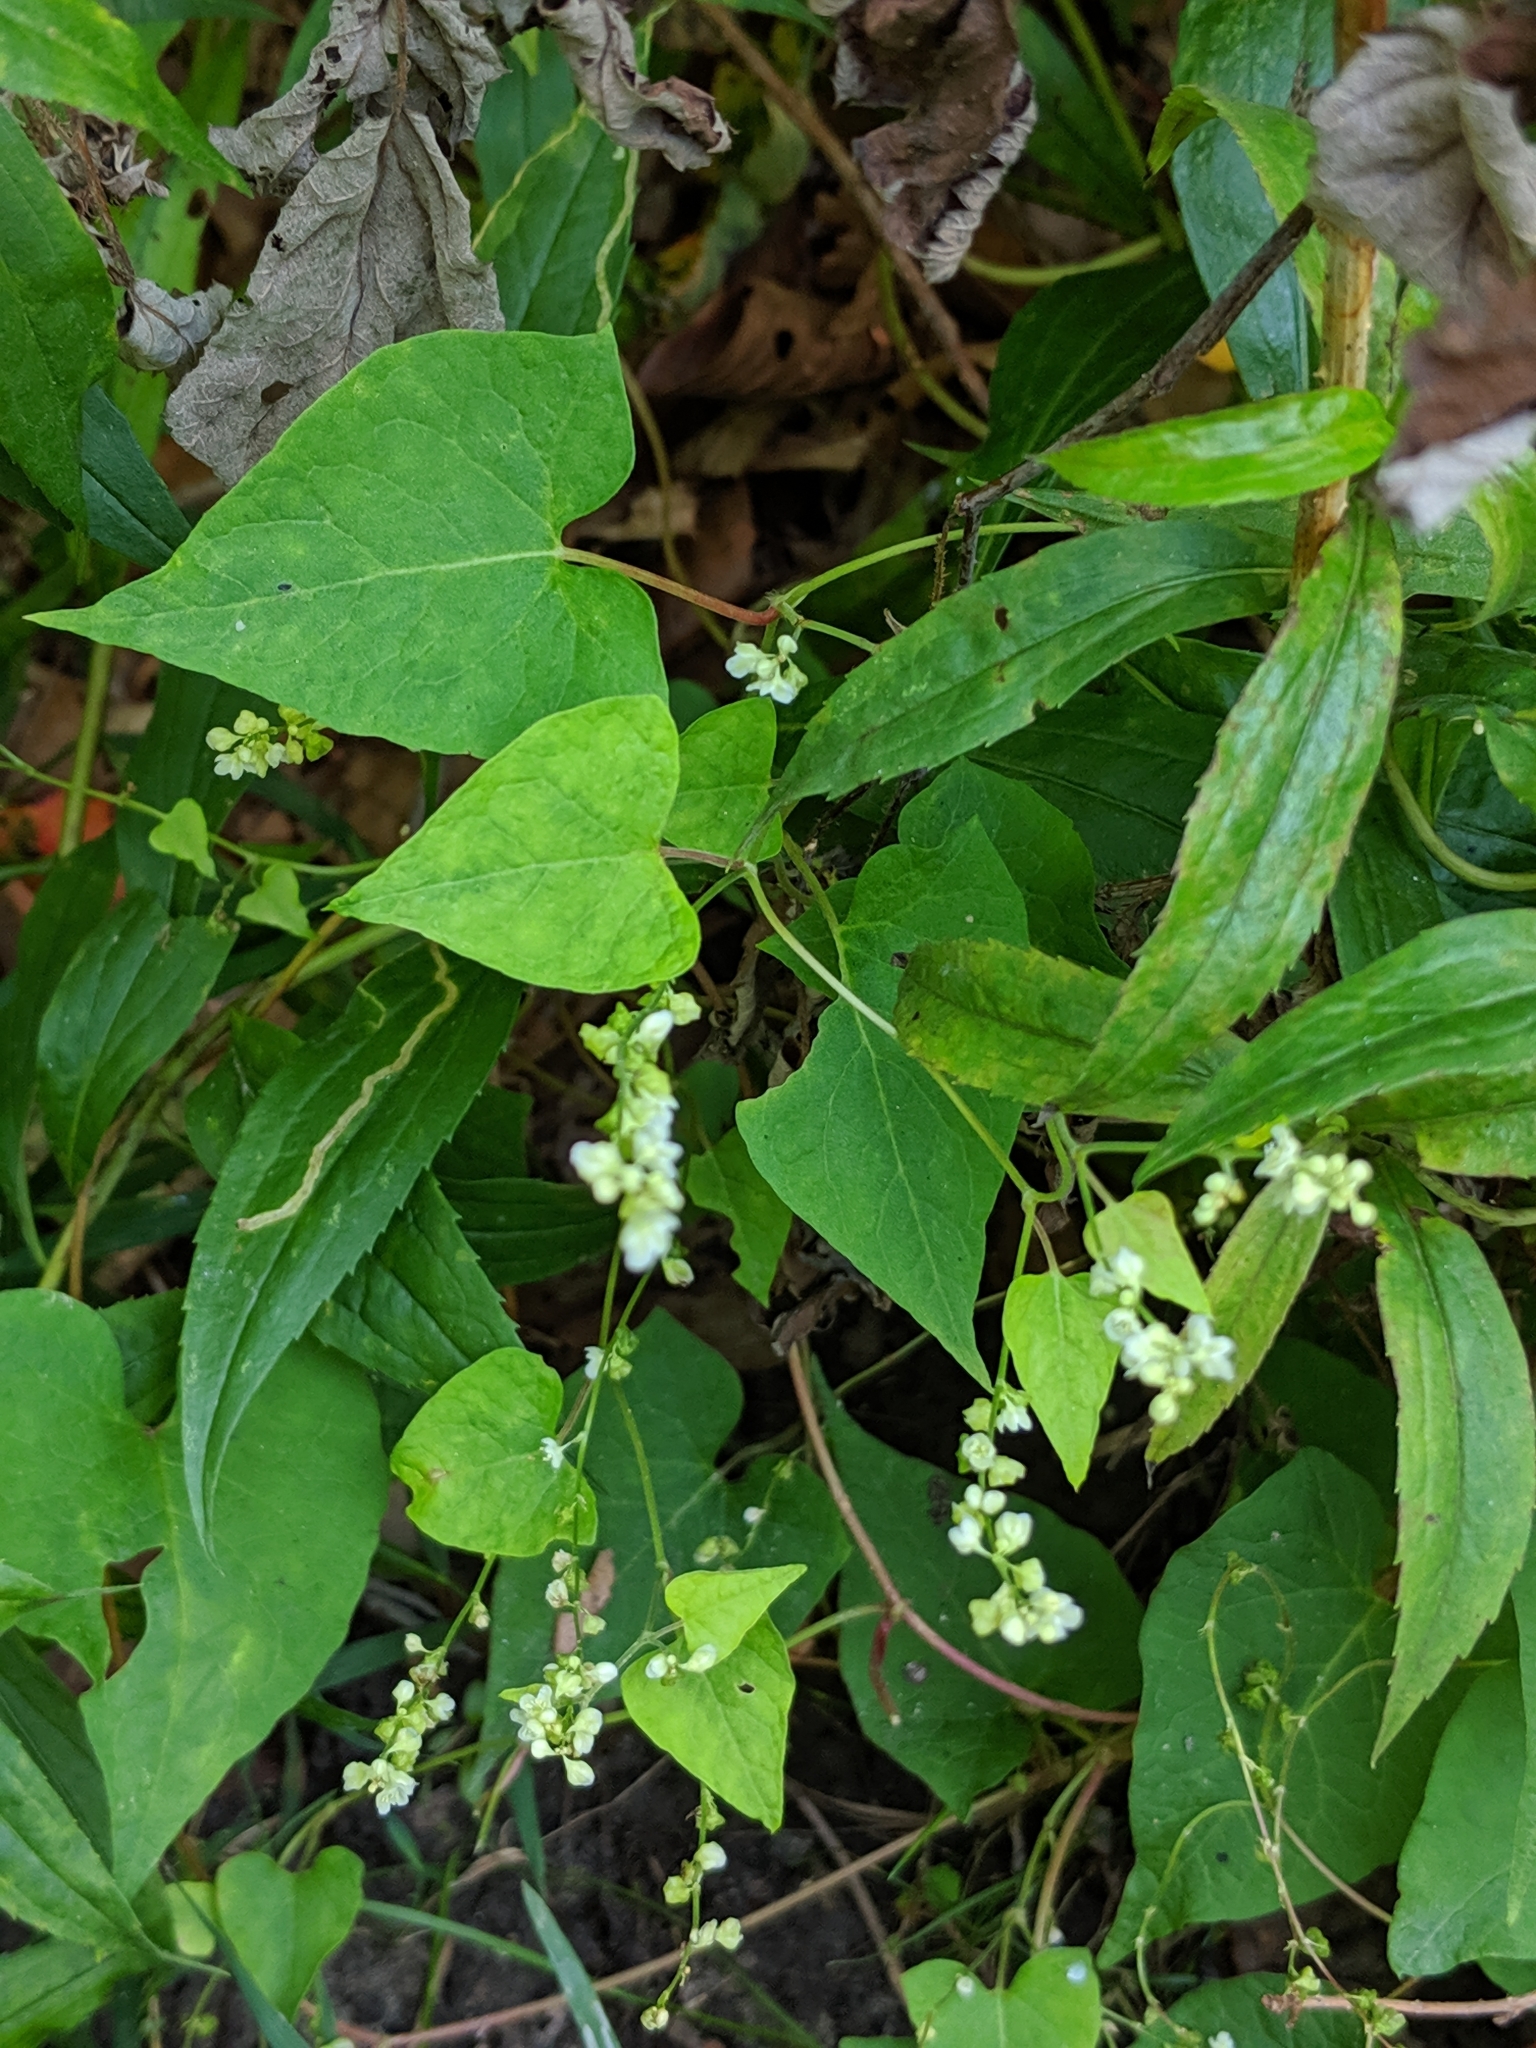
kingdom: Plantae
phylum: Tracheophyta
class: Magnoliopsida
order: Caryophyllales
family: Polygonaceae
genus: Fallopia
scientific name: Fallopia scandens
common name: Climbing false buckwheat
